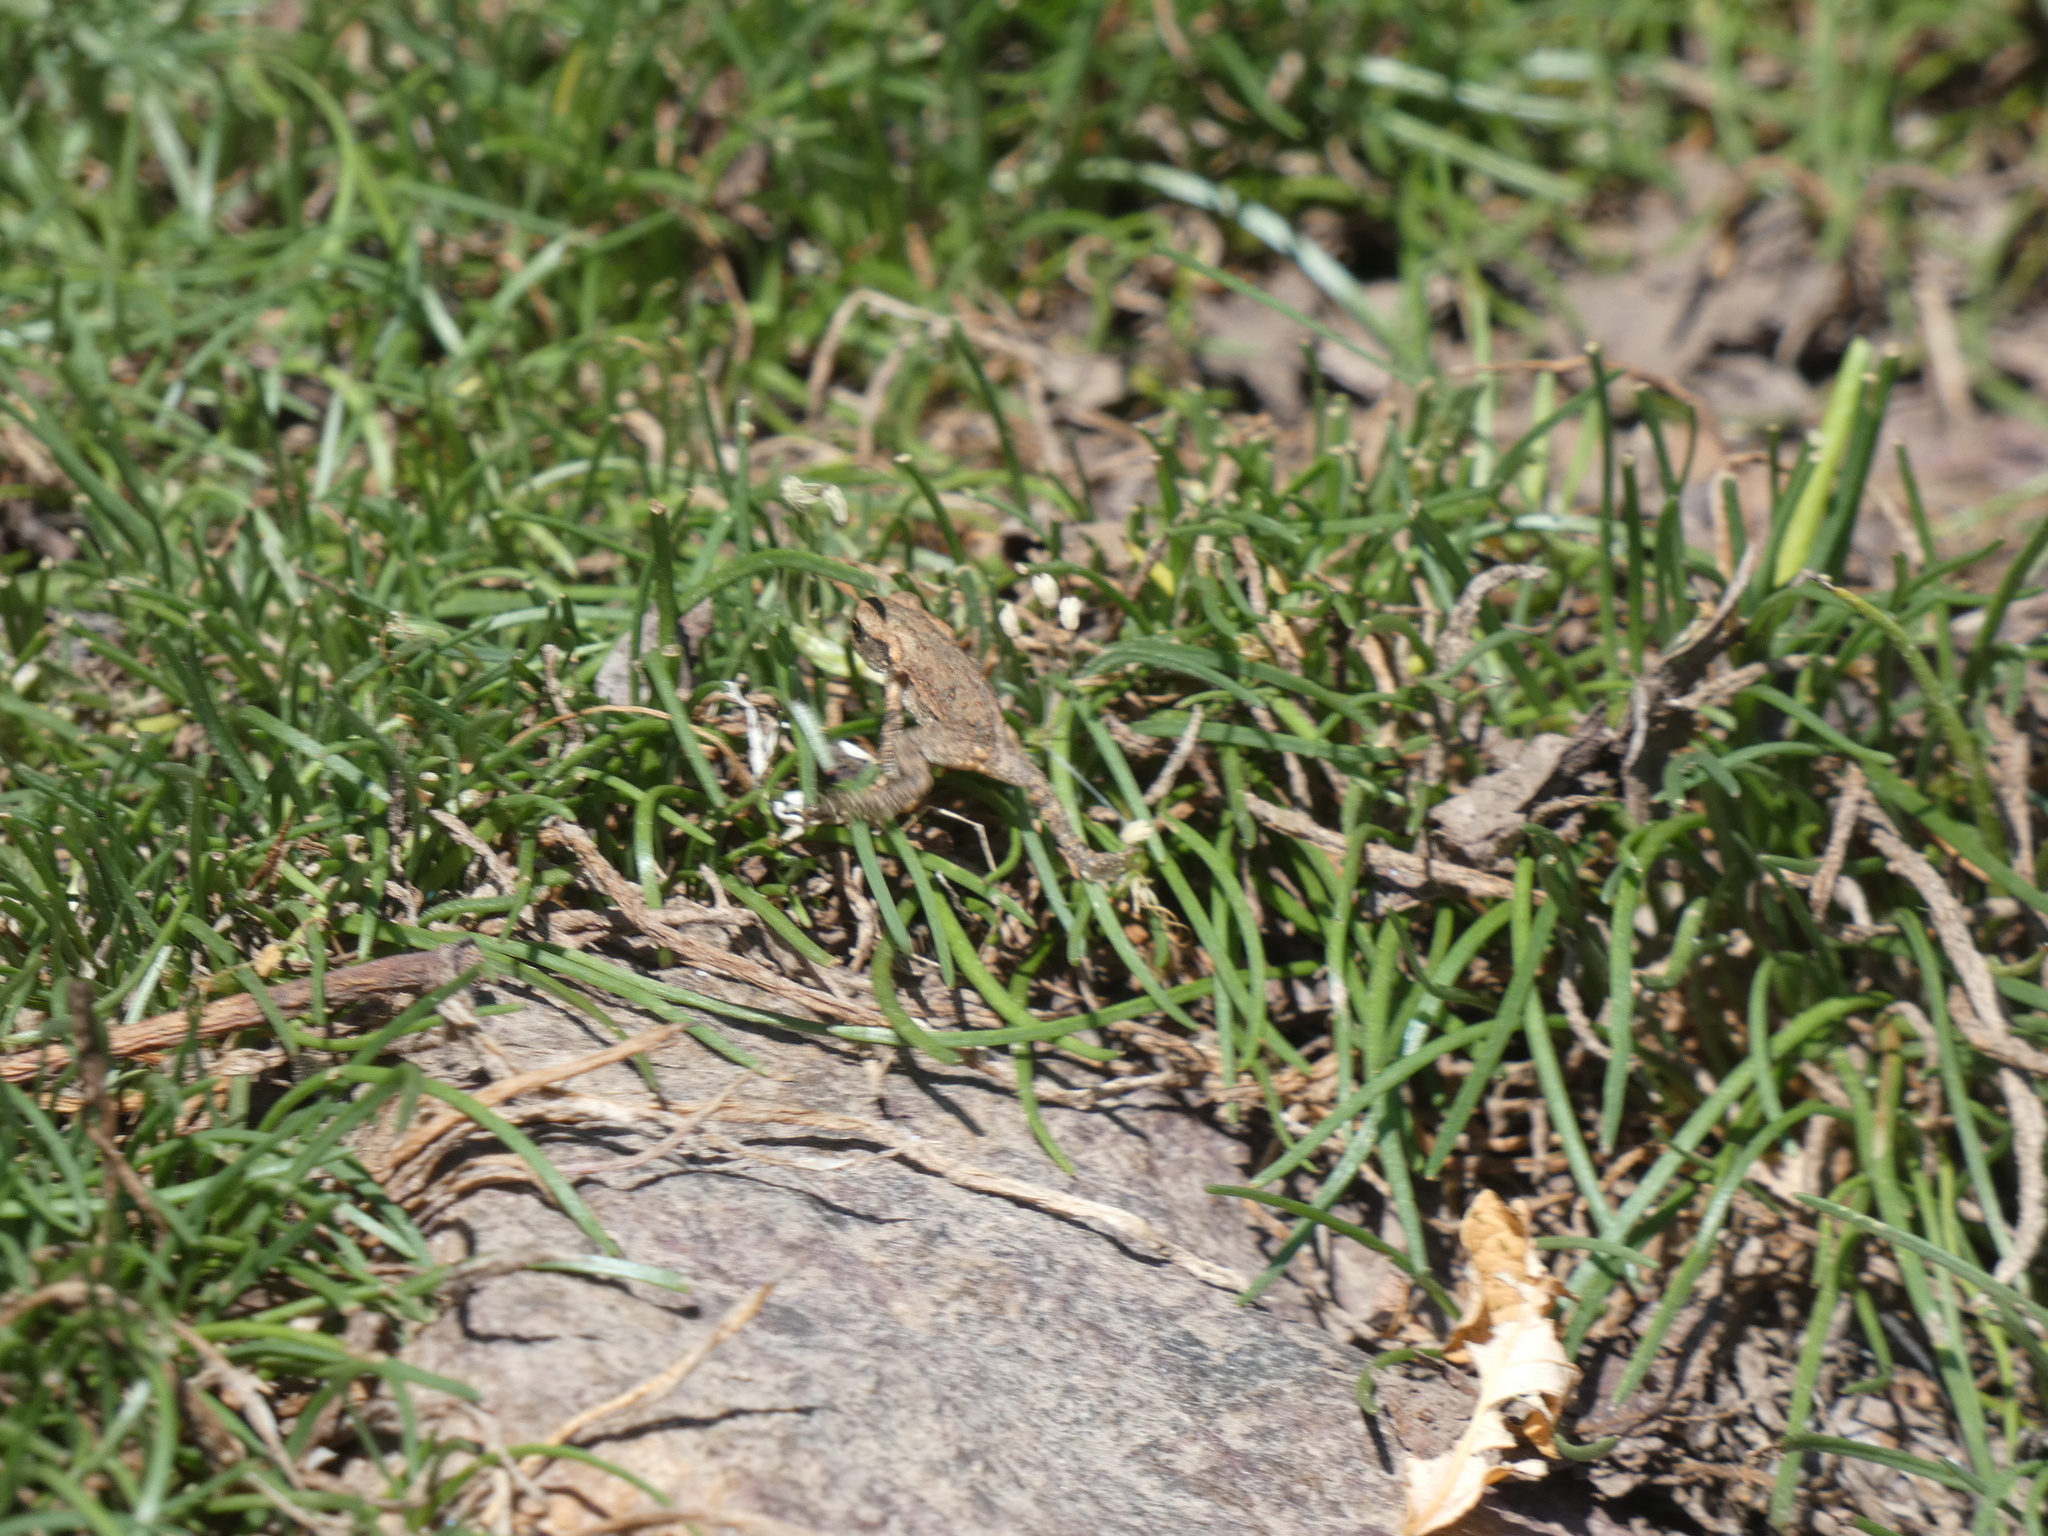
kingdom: Animalia
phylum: Chordata
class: Amphibia
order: Anura
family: Bufonidae
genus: Bufo
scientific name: Bufo spinosus
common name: Western common toad
